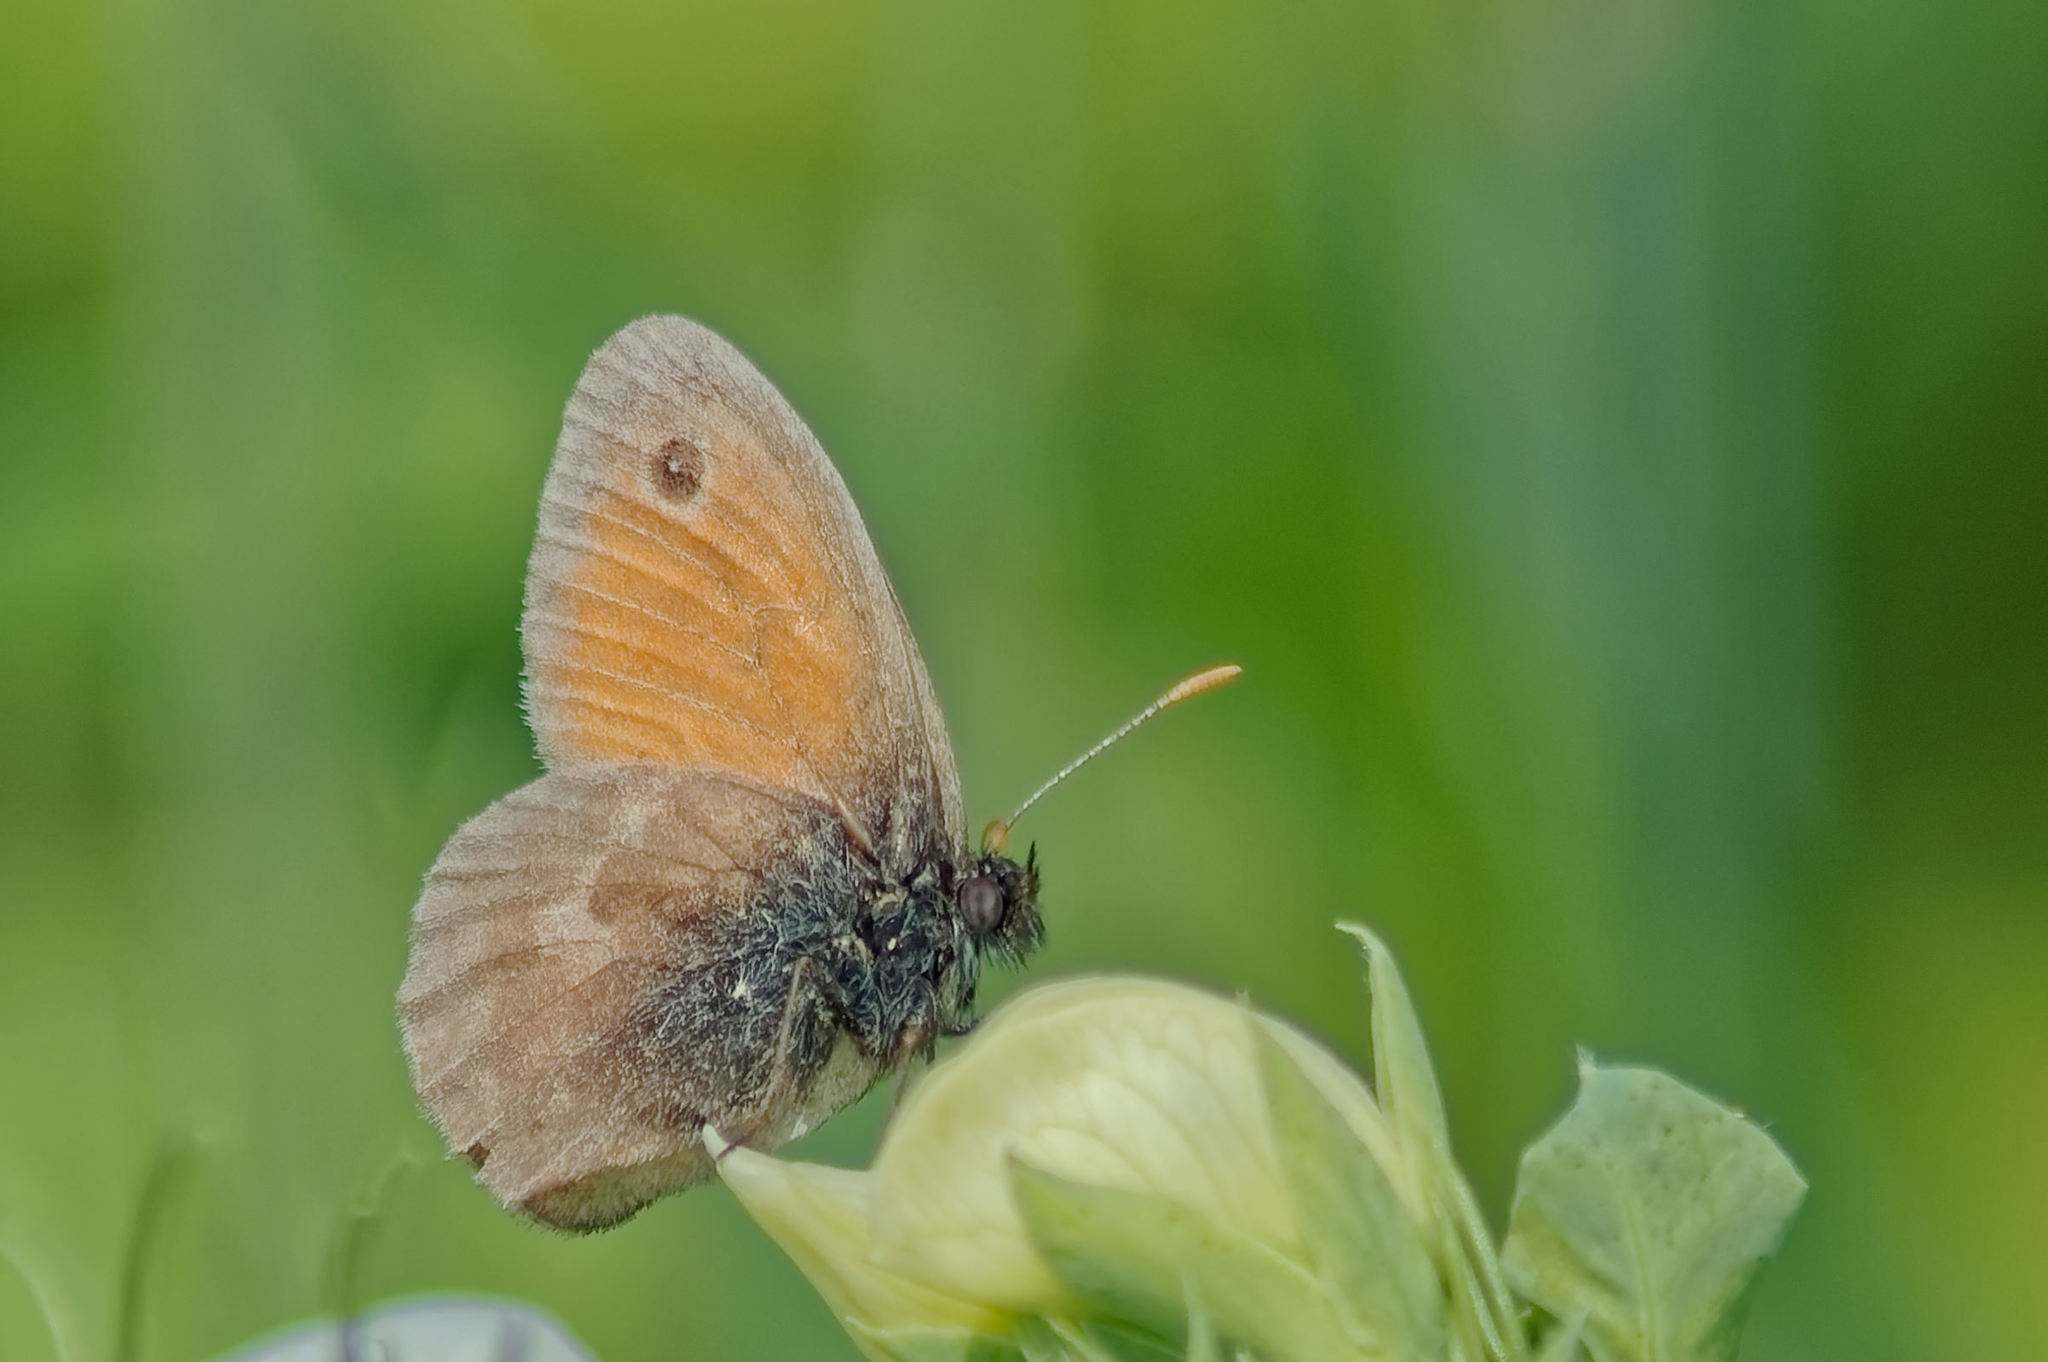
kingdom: Animalia
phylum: Arthropoda
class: Insecta
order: Lepidoptera
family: Nymphalidae
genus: Coenonympha
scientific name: Coenonympha pamphilus
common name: Small heath
